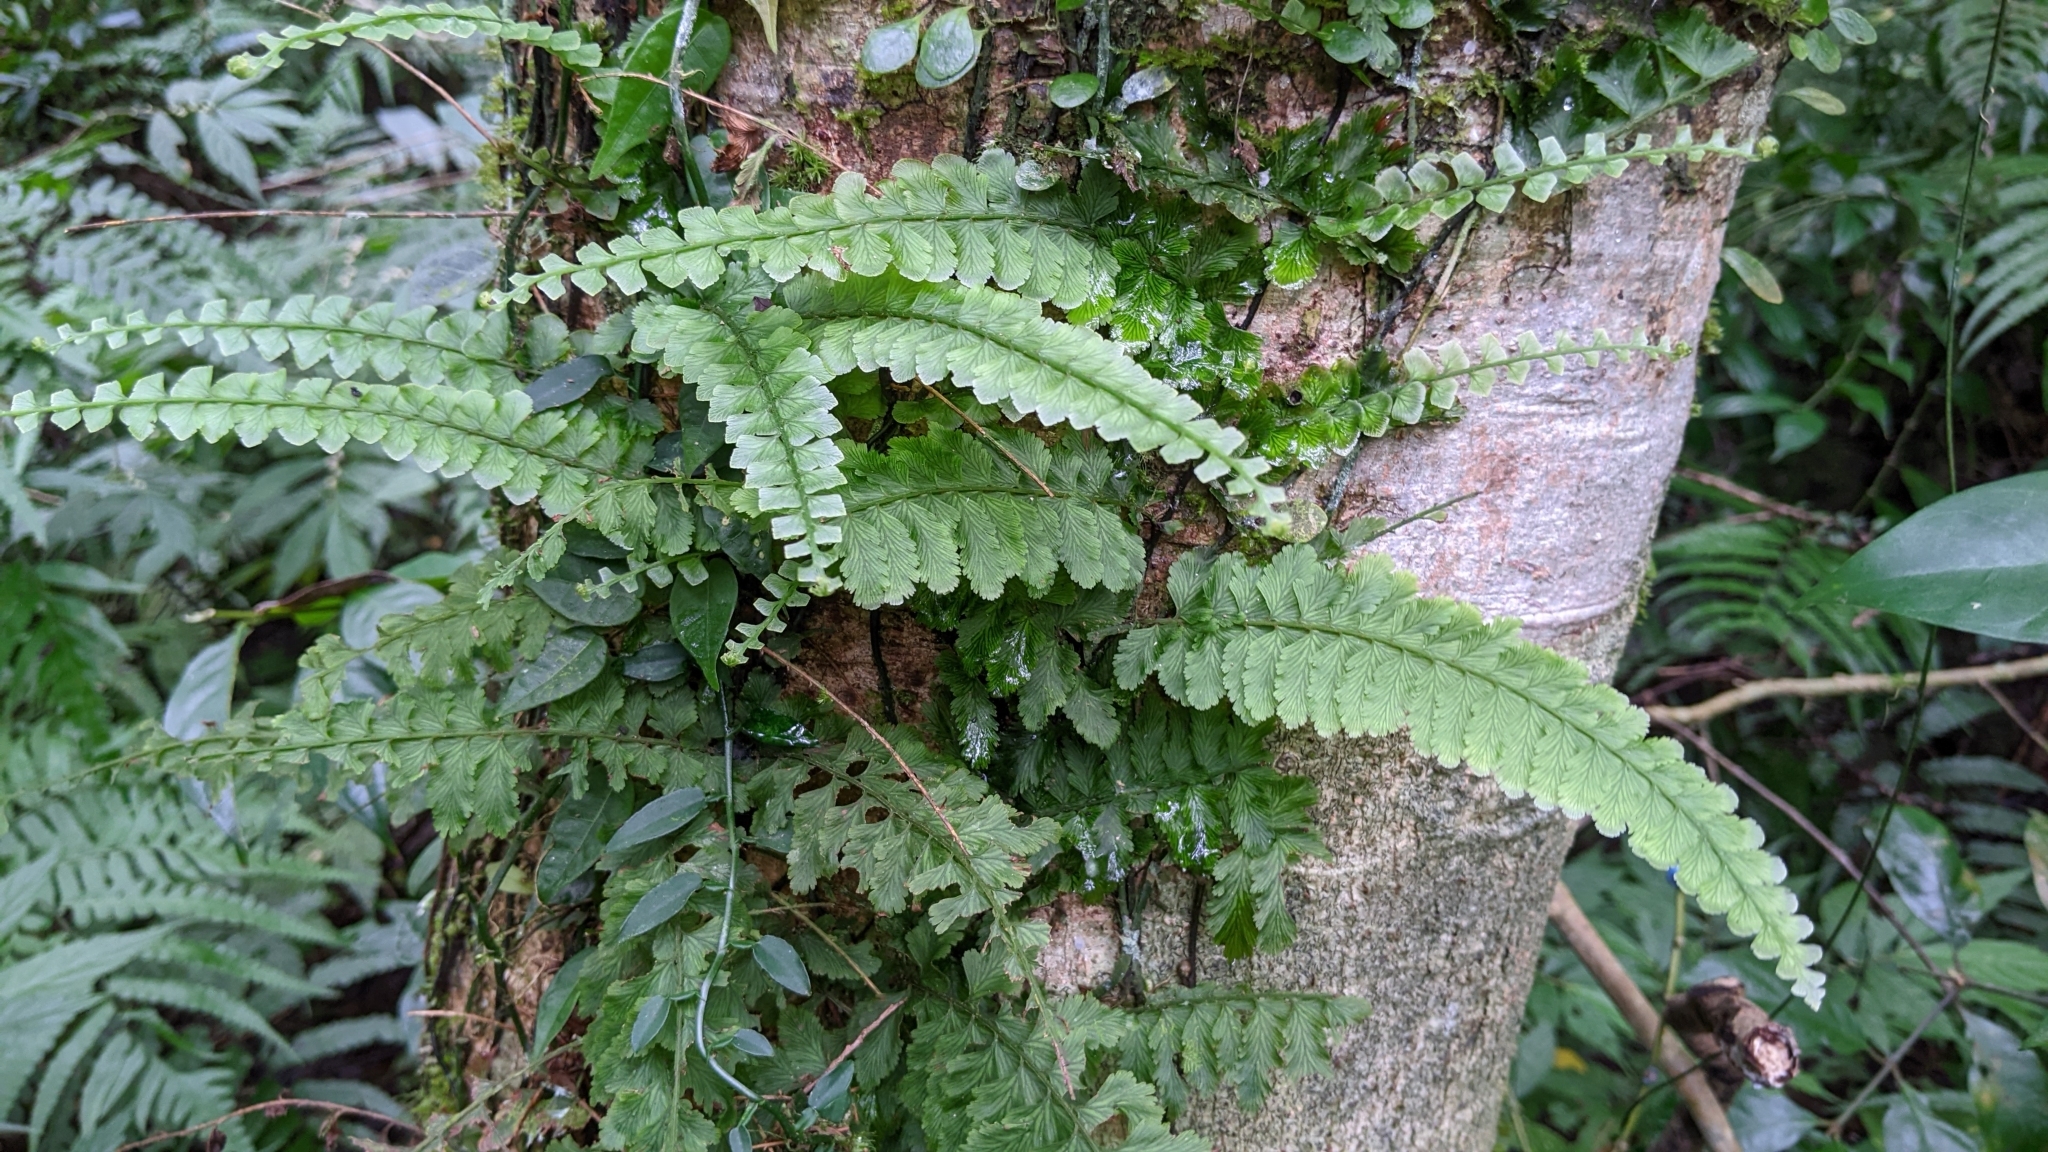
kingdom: Plantae
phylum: Tracheophyta
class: Polypodiopsida
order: Hymenophyllales
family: Hymenophyllaceae
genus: Vandenboschia
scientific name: Vandenboschia auriculata
